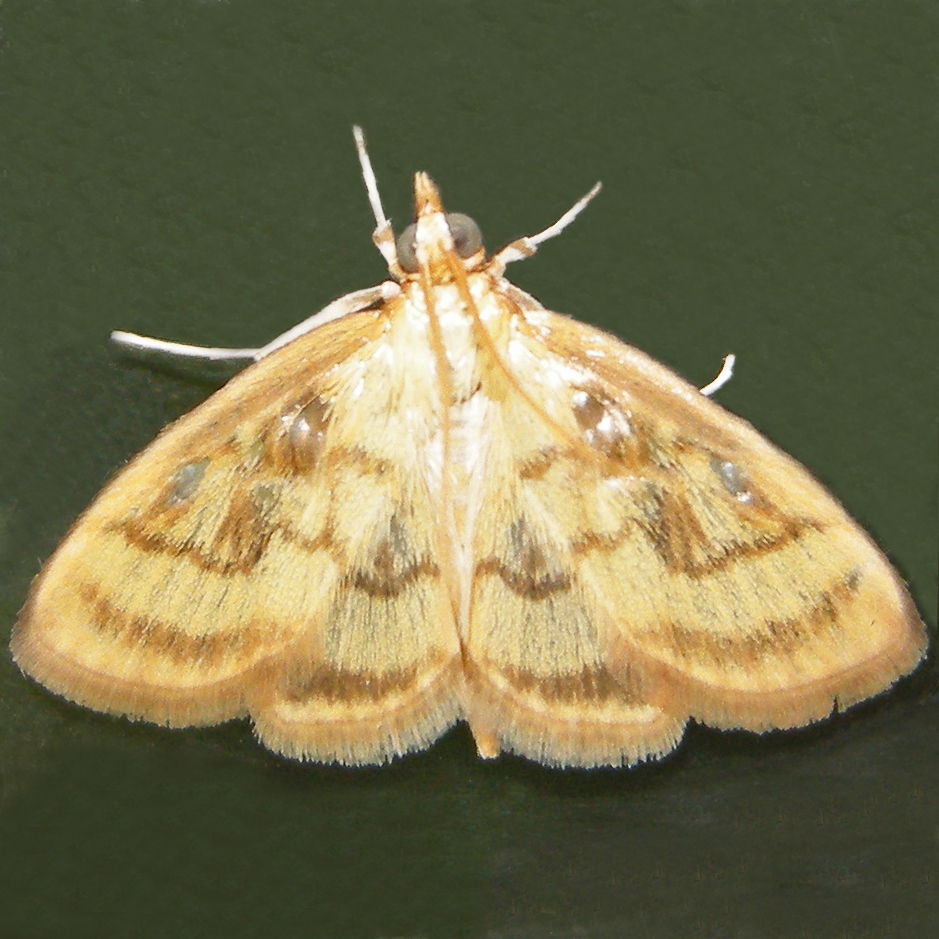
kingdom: Animalia
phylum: Arthropoda
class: Insecta
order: Lepidoptera
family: Crambidae
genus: Crocidophora
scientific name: Crocidophora tuberculalis
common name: Pale-winged crocidiphora moth
